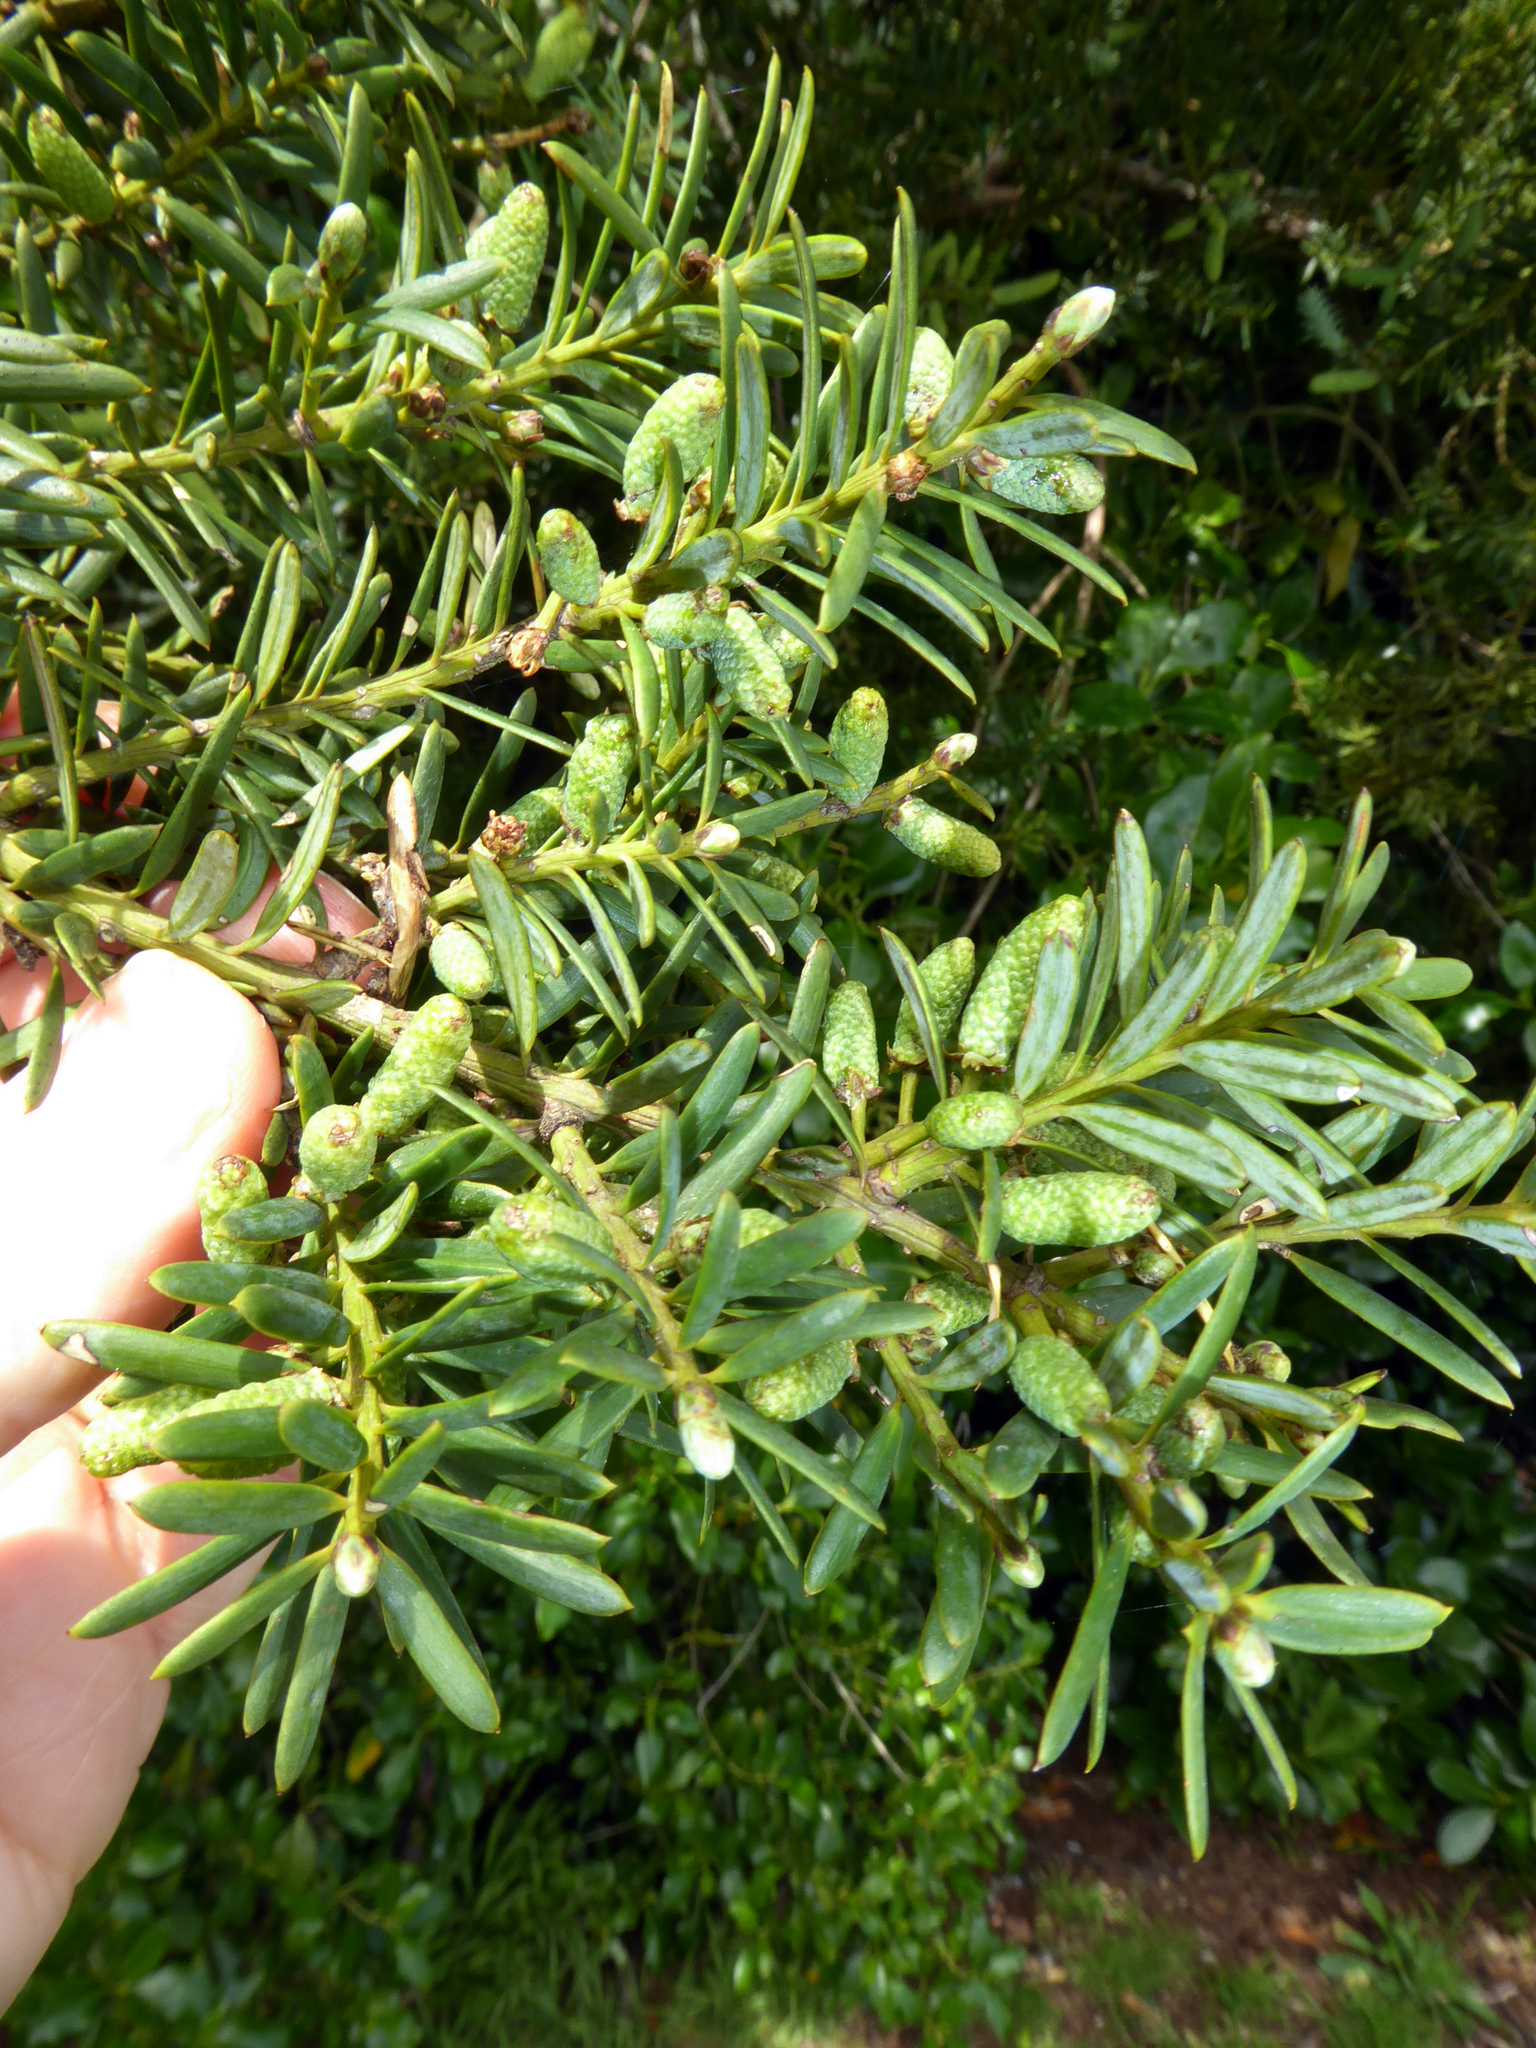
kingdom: Plantae
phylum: Tracheophyta
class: Pinopsida
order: Pinales
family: Podocarpaceae
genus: Podocarpus
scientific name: Podocarpus totara
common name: Totara
